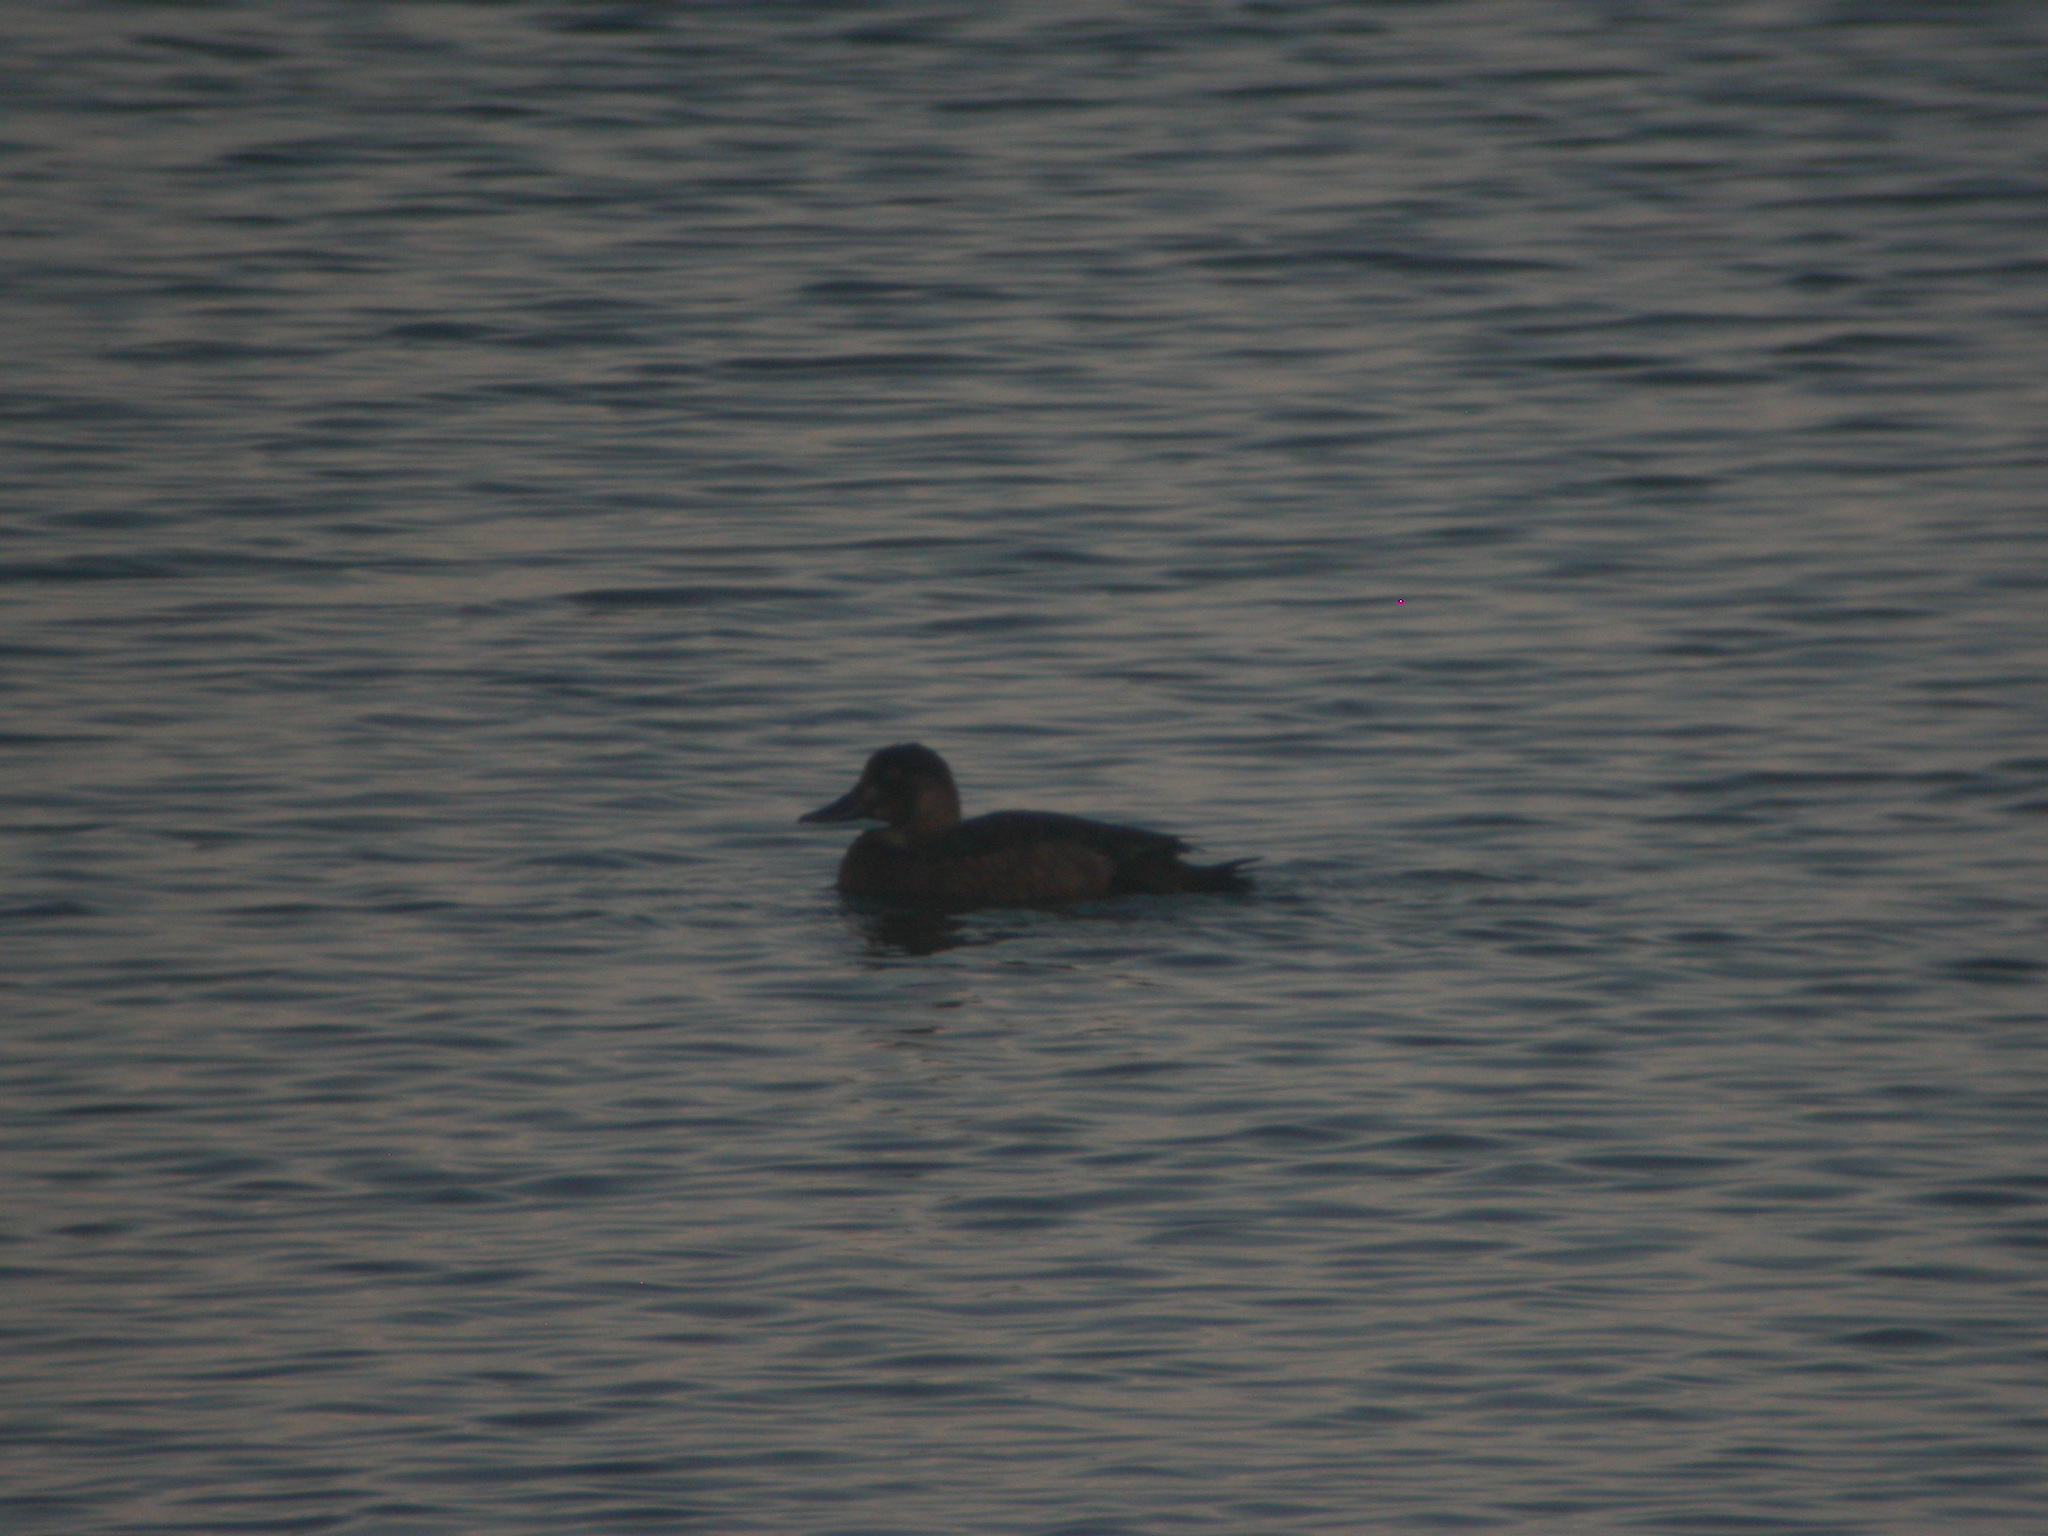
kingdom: Animalia
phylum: Chordata
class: Aves
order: Anseriformes
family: Anatidae
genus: Aythya
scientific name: Aythya marila
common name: Greater scaup
